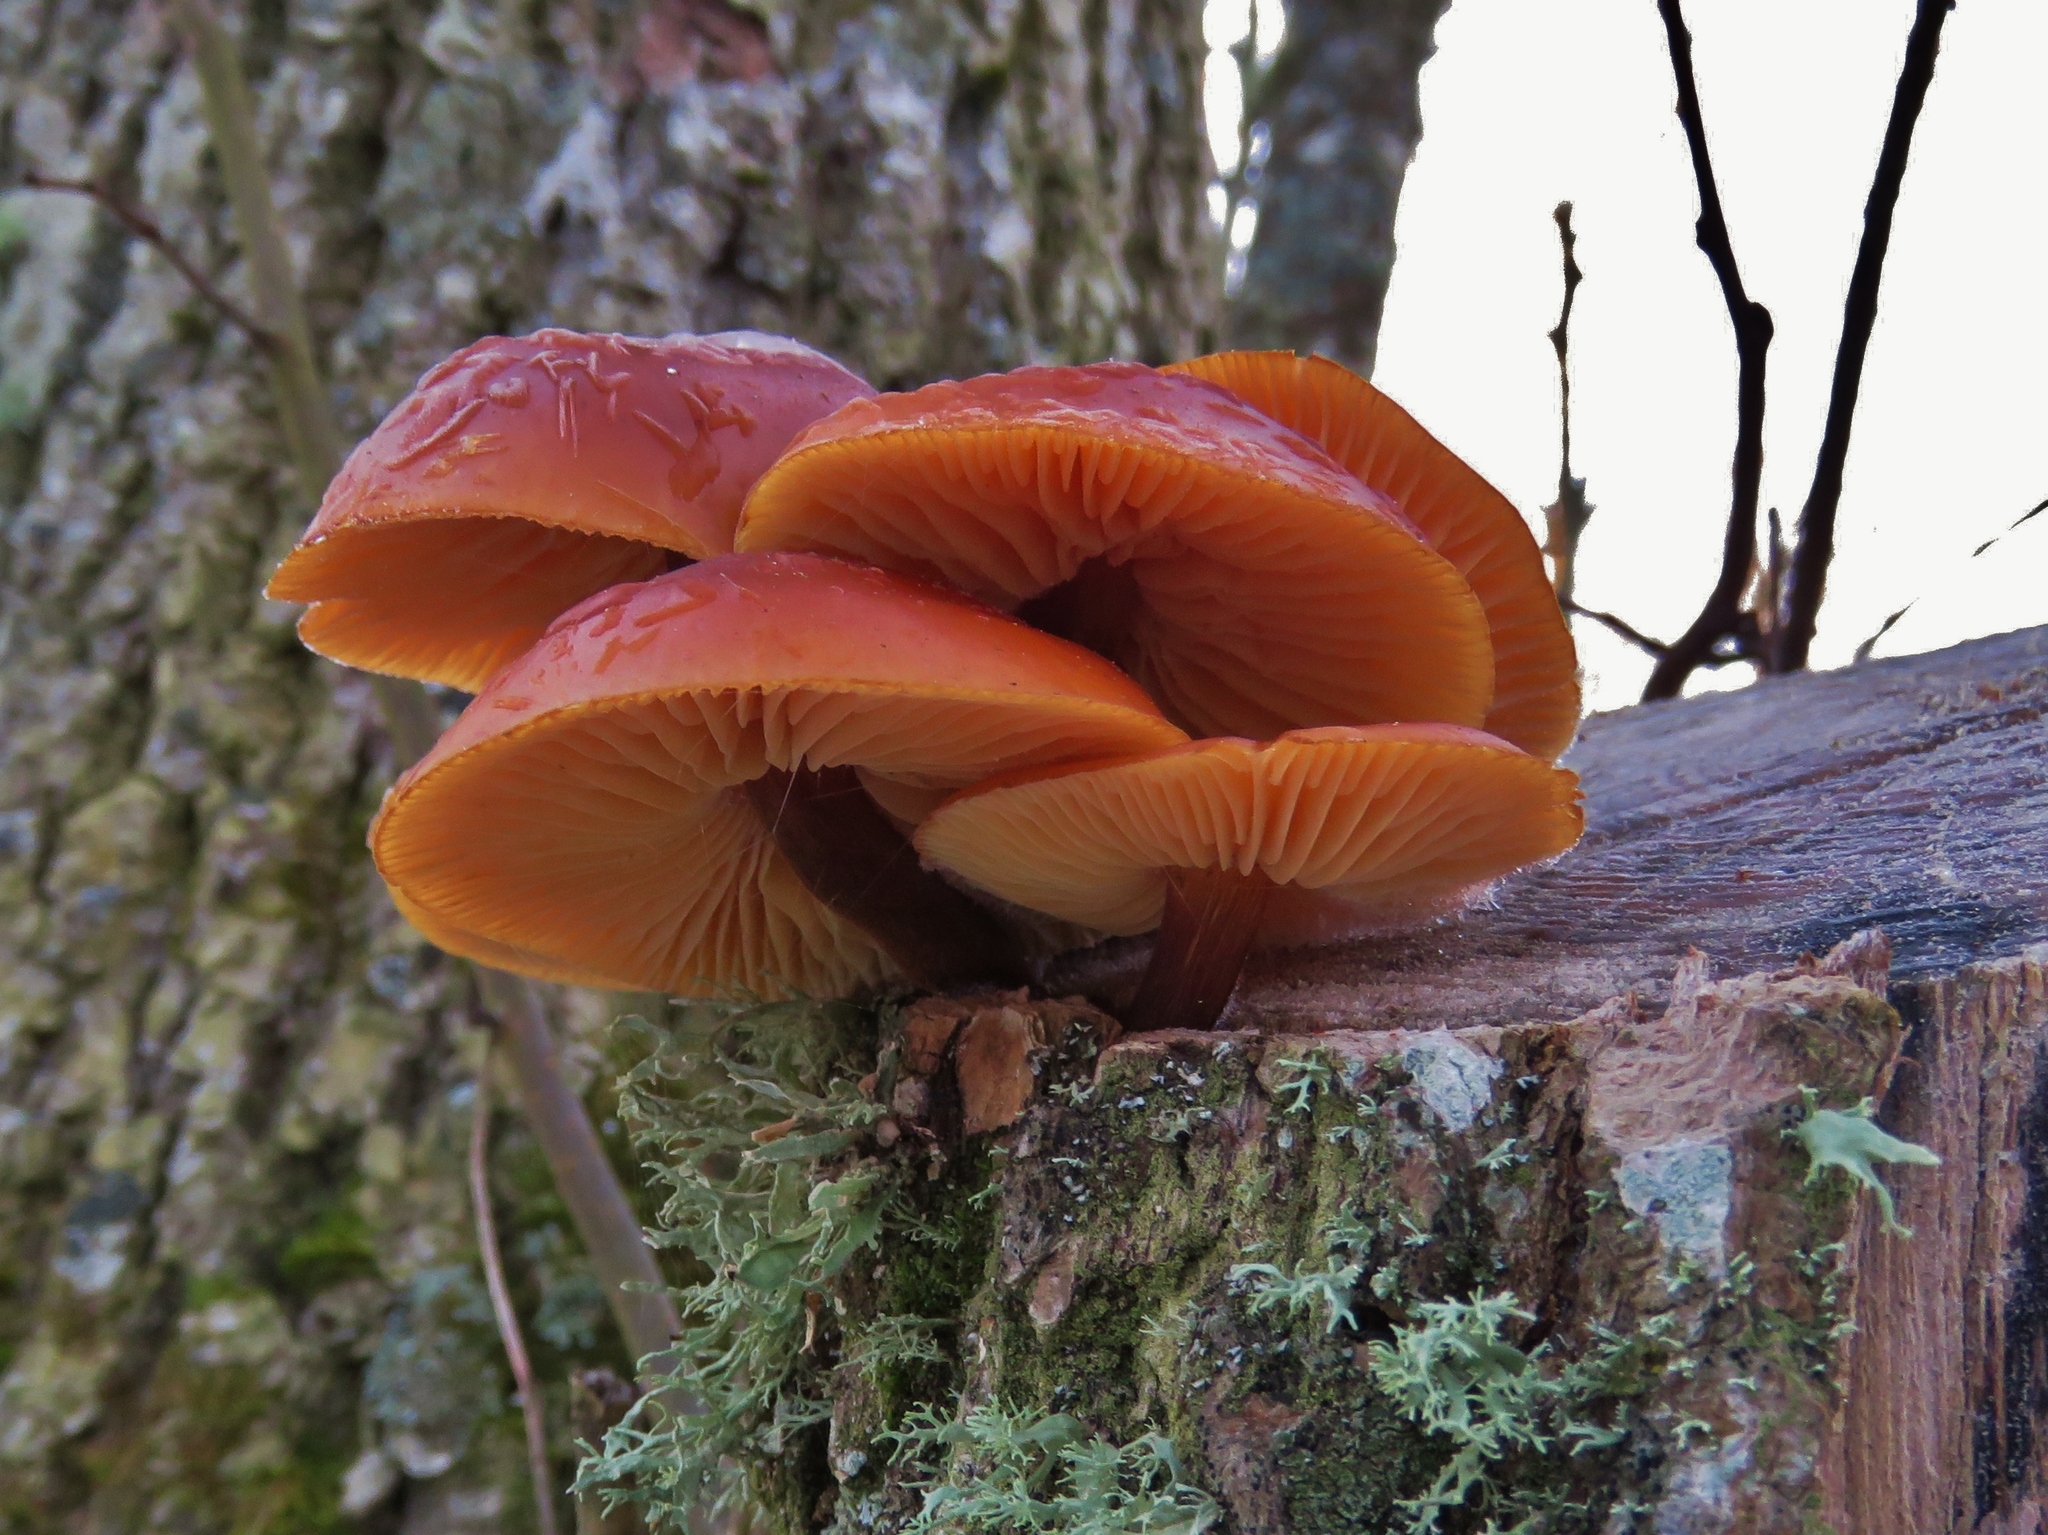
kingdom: Fungi
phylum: Basidiomycota
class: Agaricomycetes
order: Agaricales
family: Physalacriaceae
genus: Flammulina
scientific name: Flammulina
